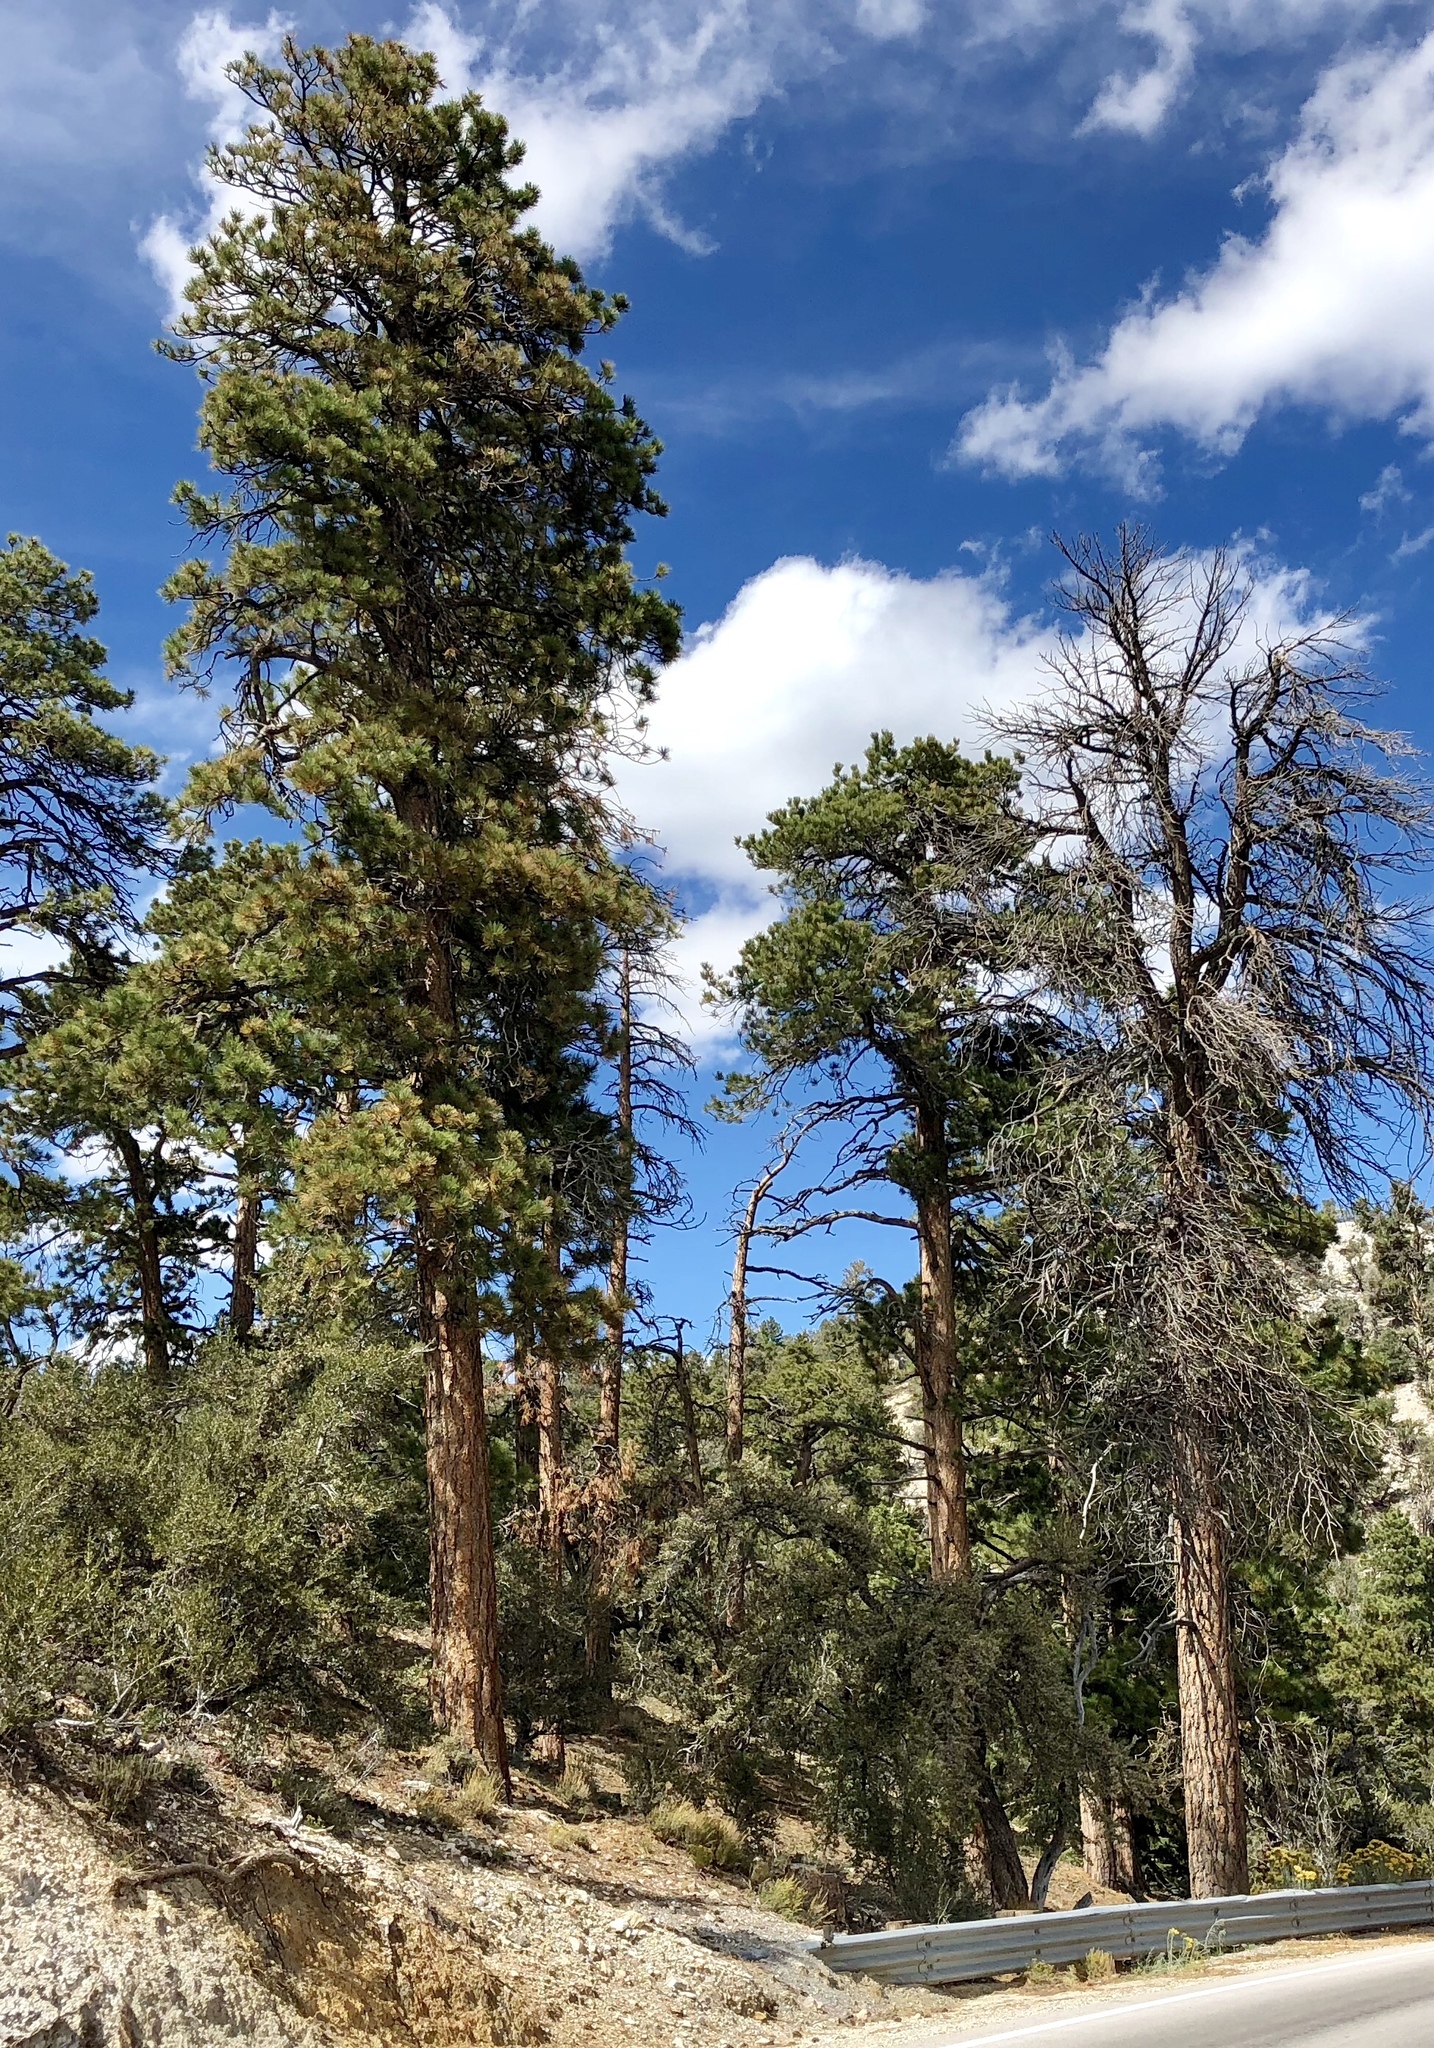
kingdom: Plantae
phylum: Tracheophyta
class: Pinopsida
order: Pinales
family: Pinaceae
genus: Pinus
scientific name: Pinus ponderosa
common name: Western yellow-pine
